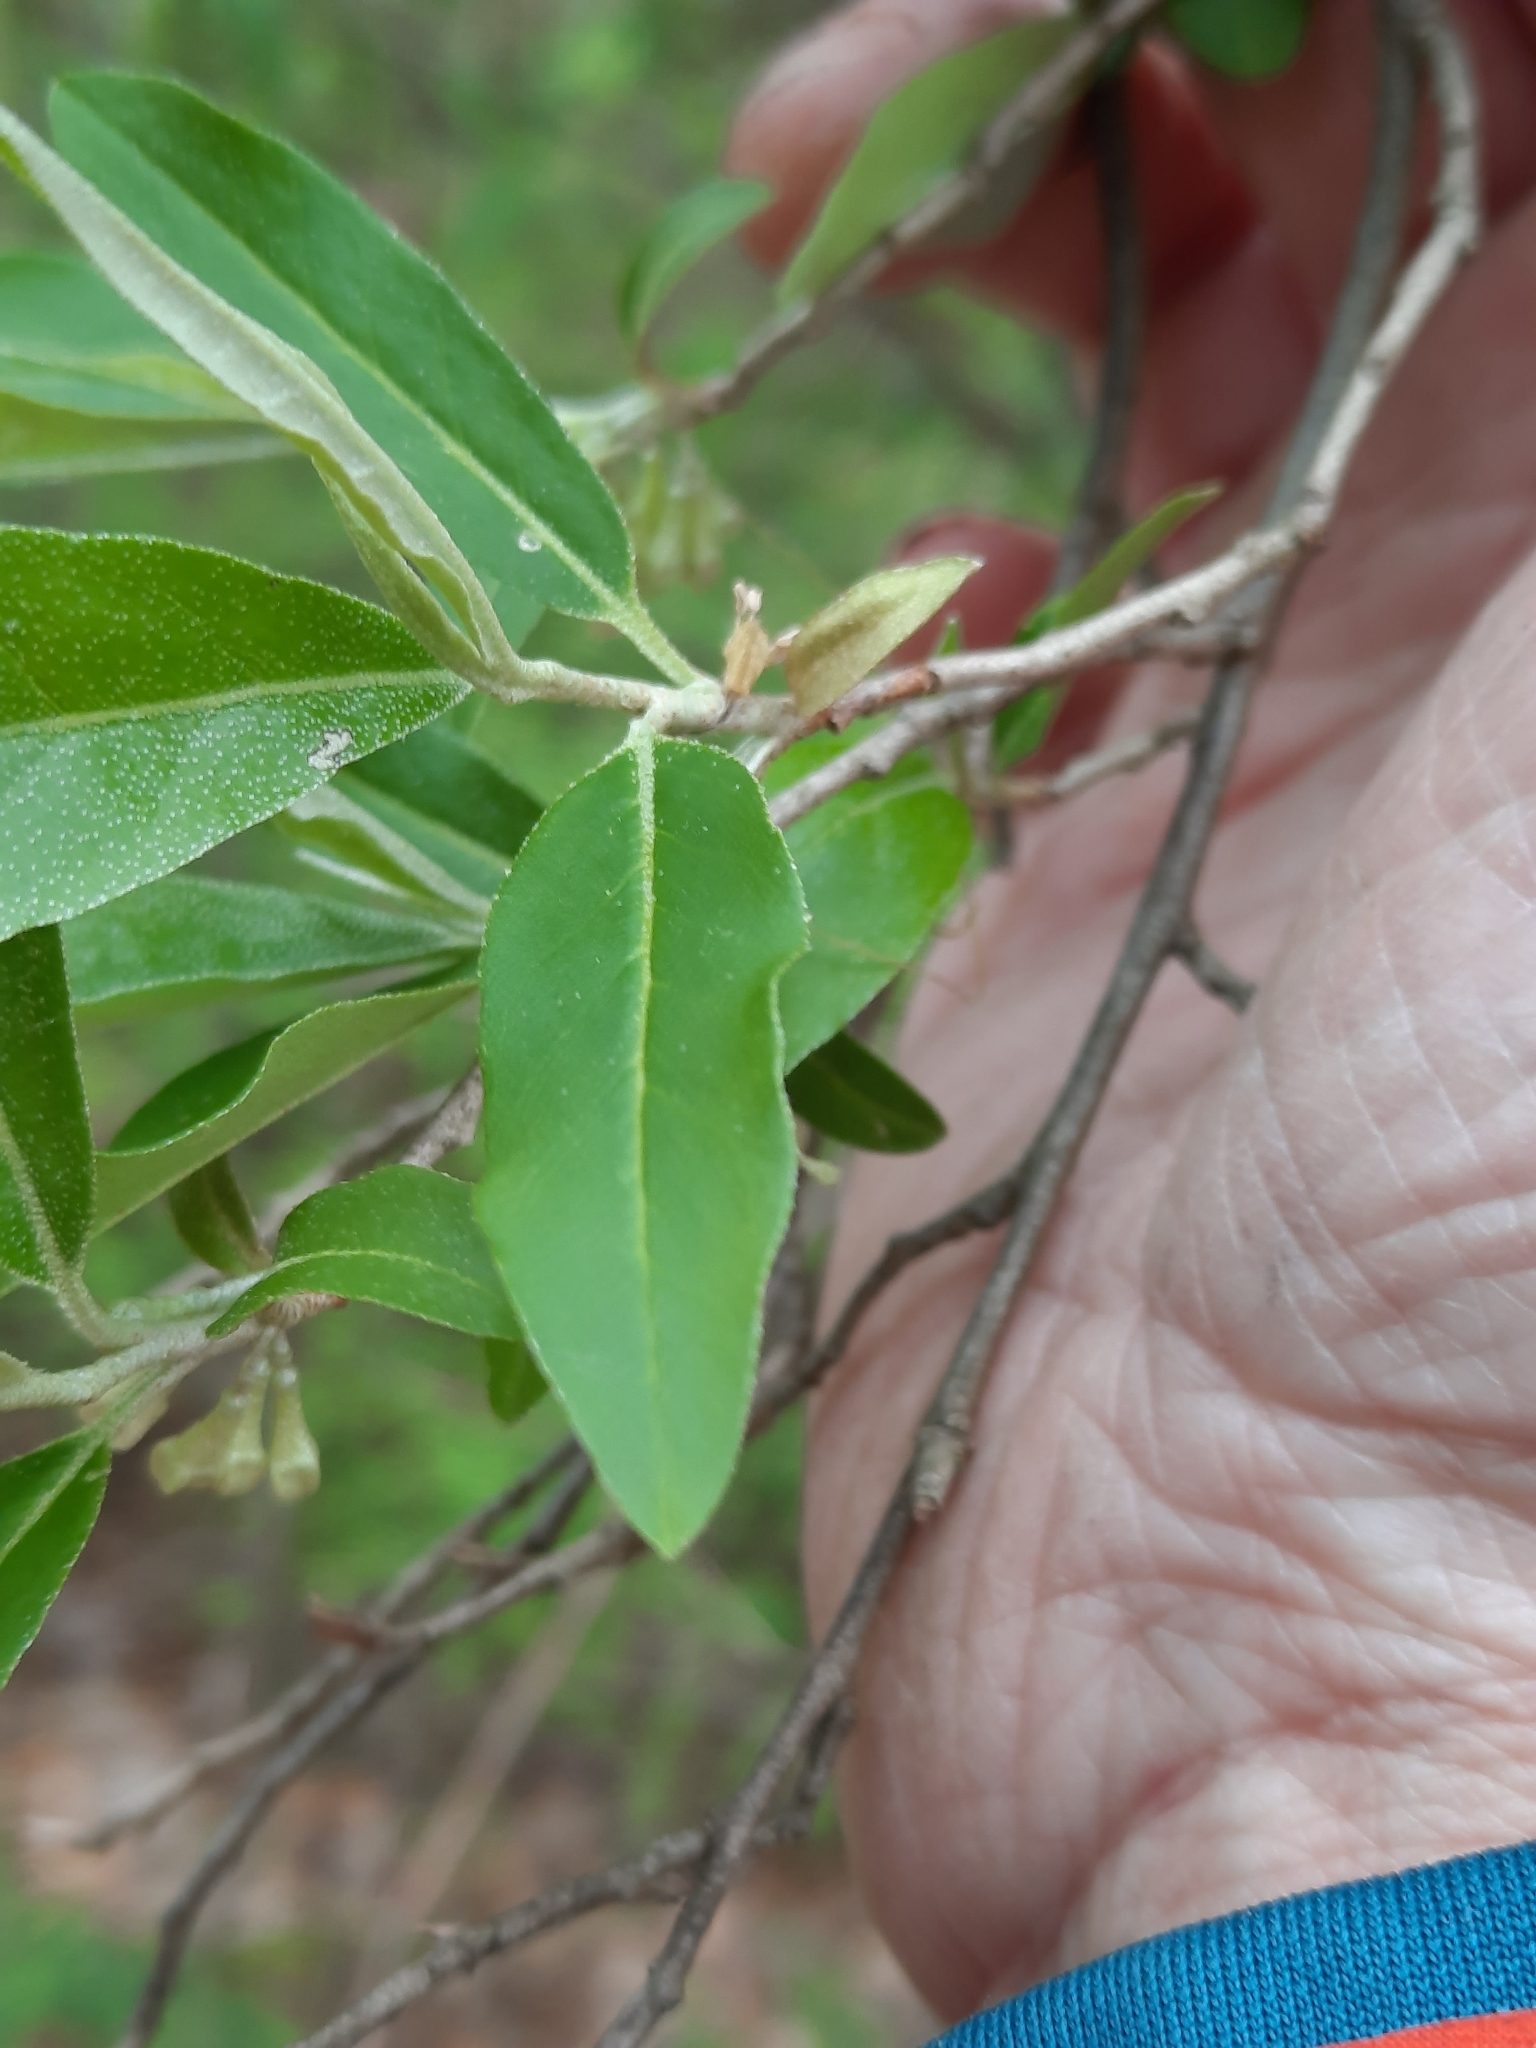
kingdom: Plantae
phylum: Tracheophyta
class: Magnoliopsida
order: Rosales
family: Elaeagnaceae
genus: Elaeagnus
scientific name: Elaeagnus umbellata
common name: Autumn olive
